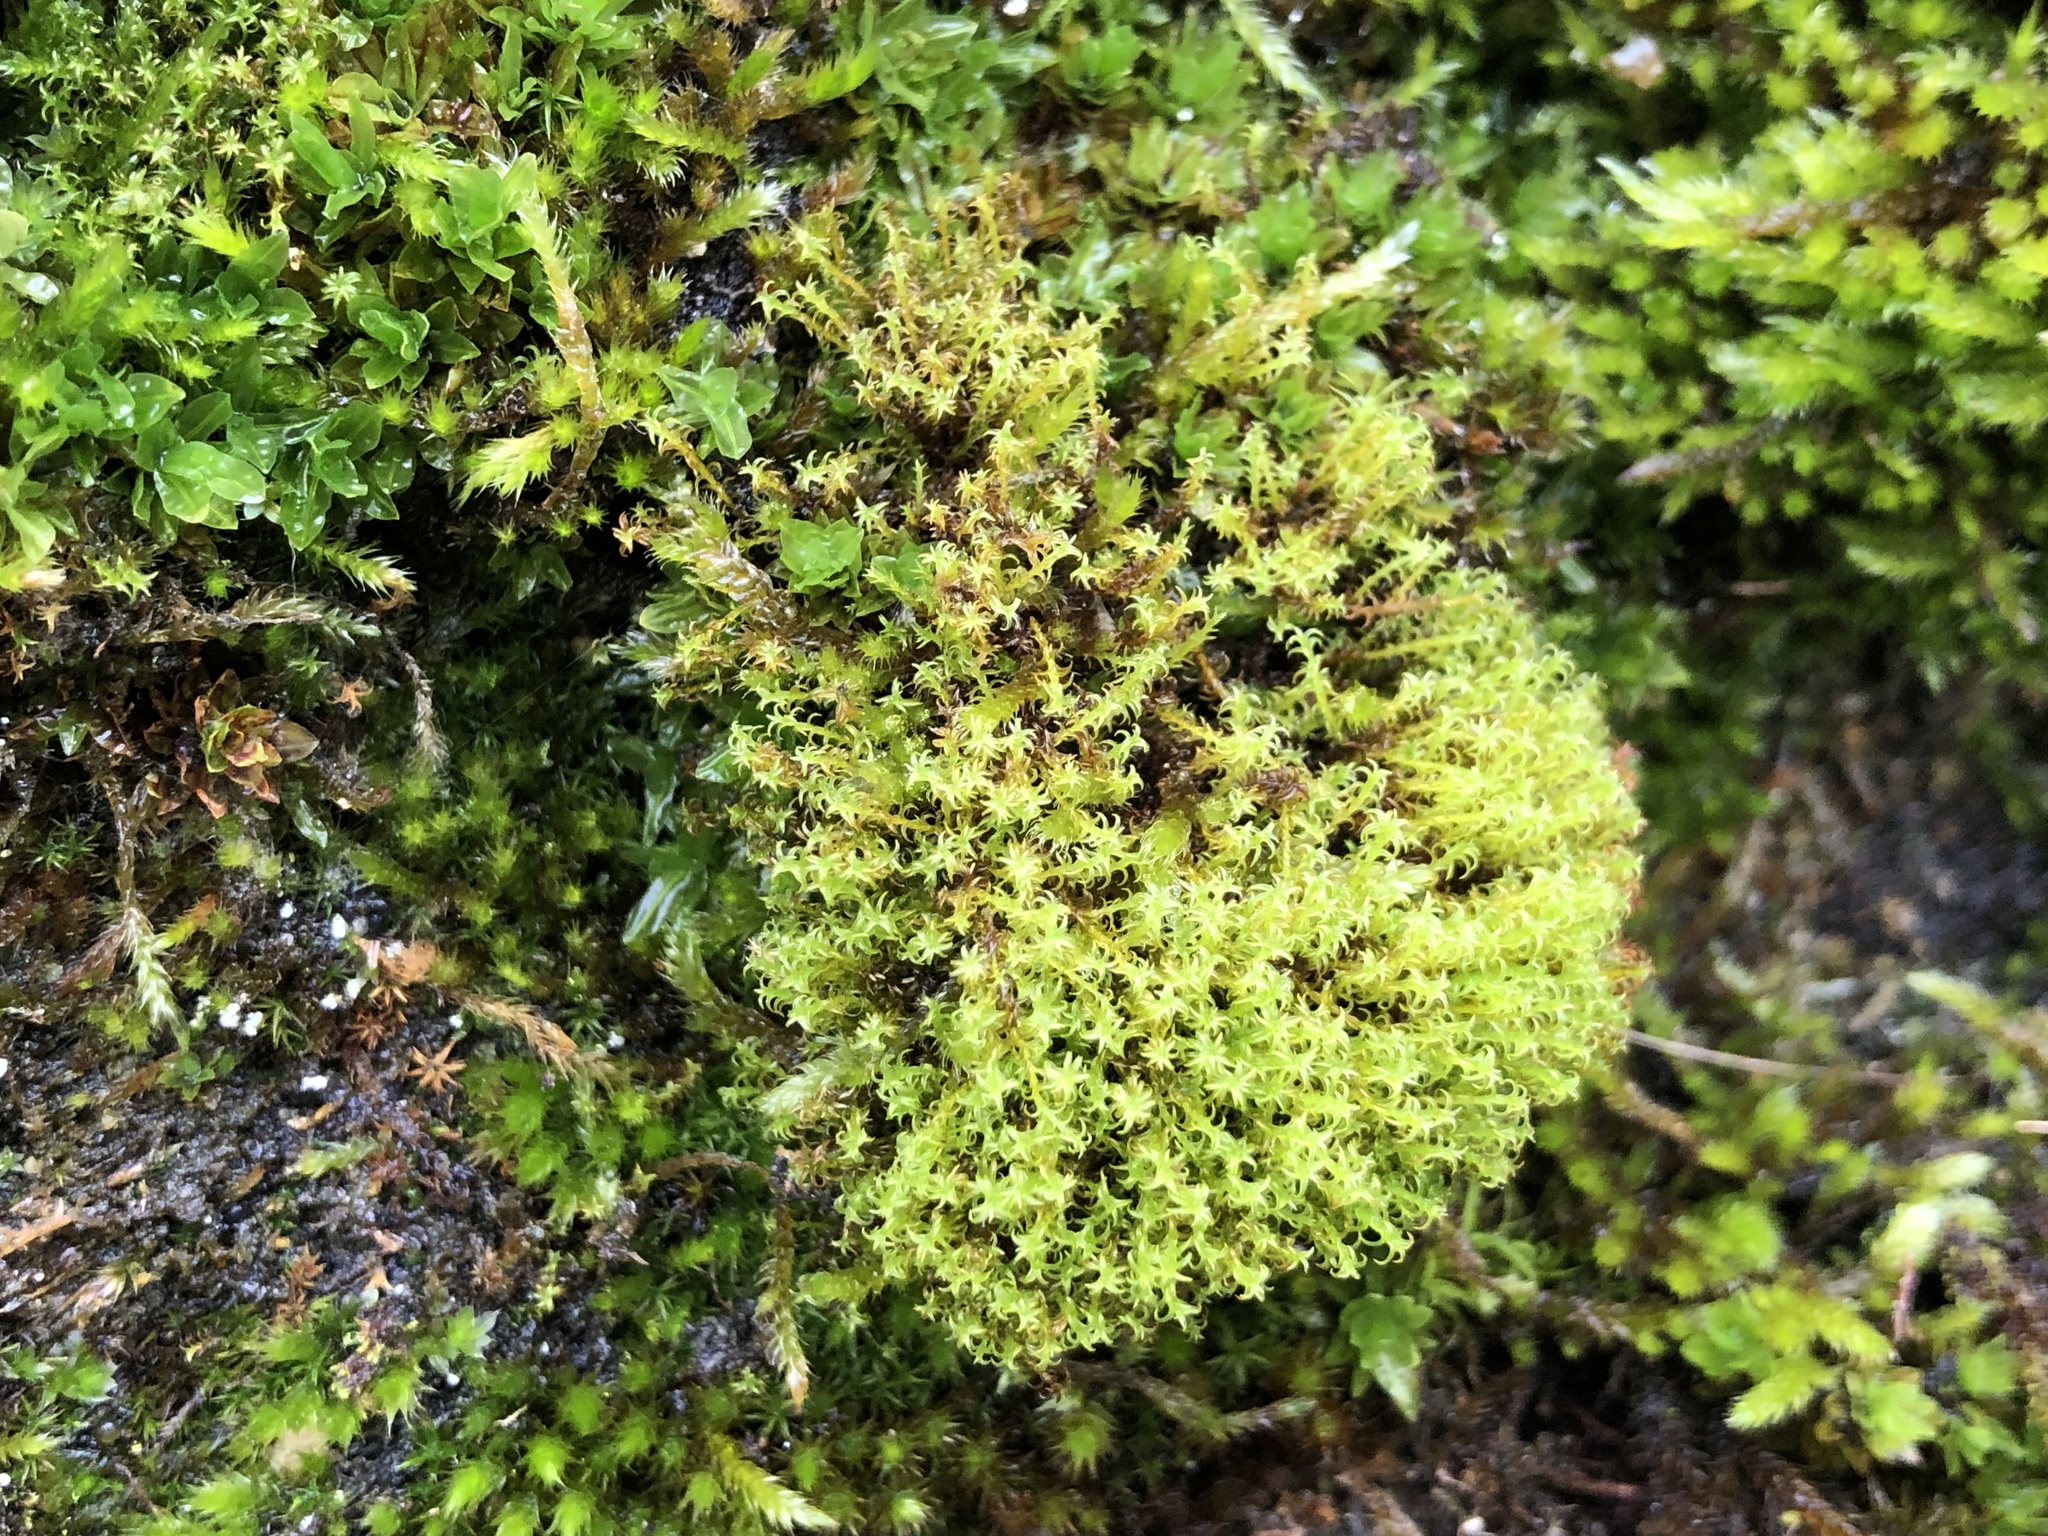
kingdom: Plantae
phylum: Bryophyta
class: Bryopsida
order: Pottiales
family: Pottiaceae
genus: Geheebia
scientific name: Geheebia ferruginea
